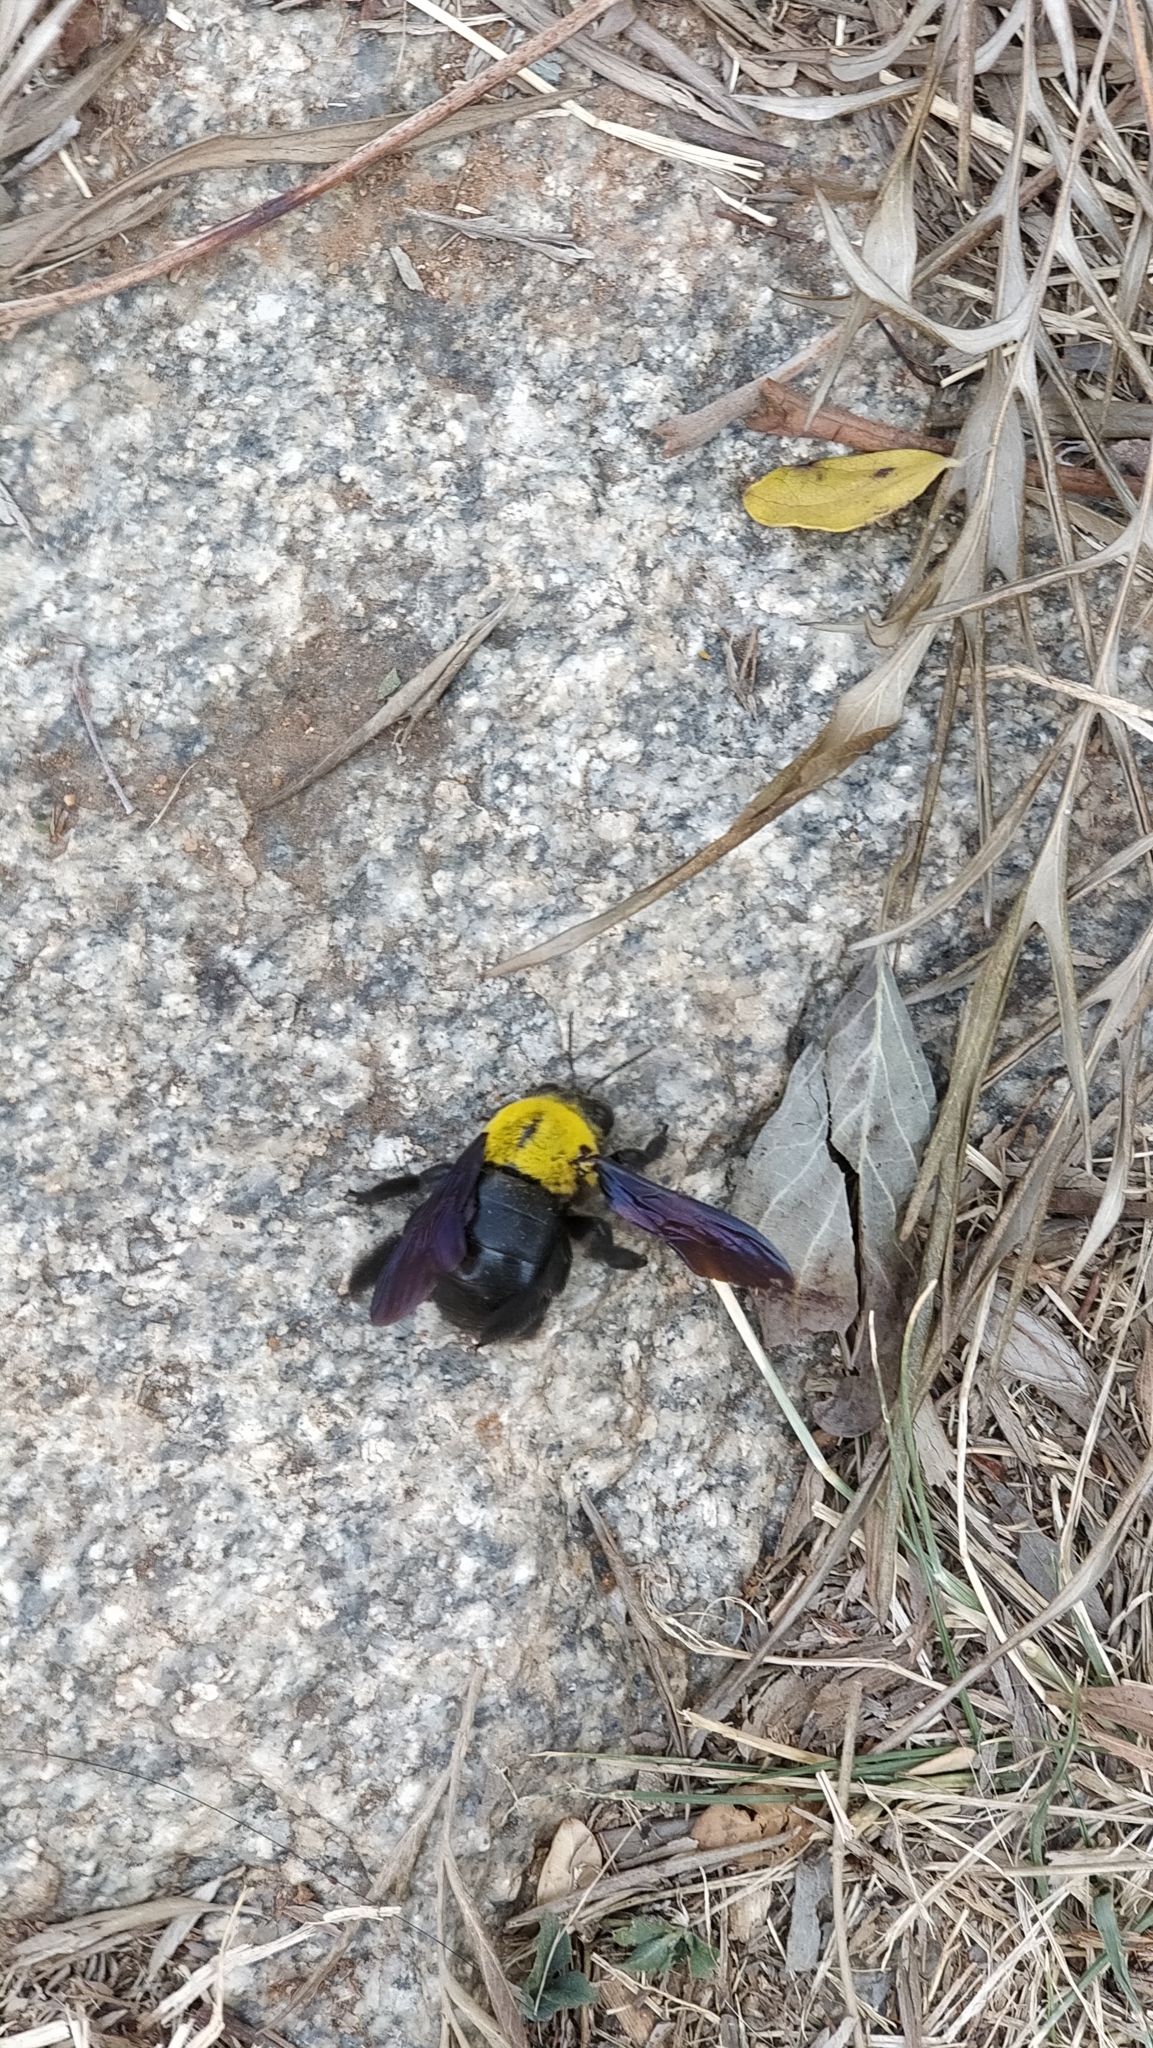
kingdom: Animalia
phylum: Arthropoda
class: Insecta
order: Hymenoptera
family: Apidae
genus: Xylocopa
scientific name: Xylocopa ruficornis
